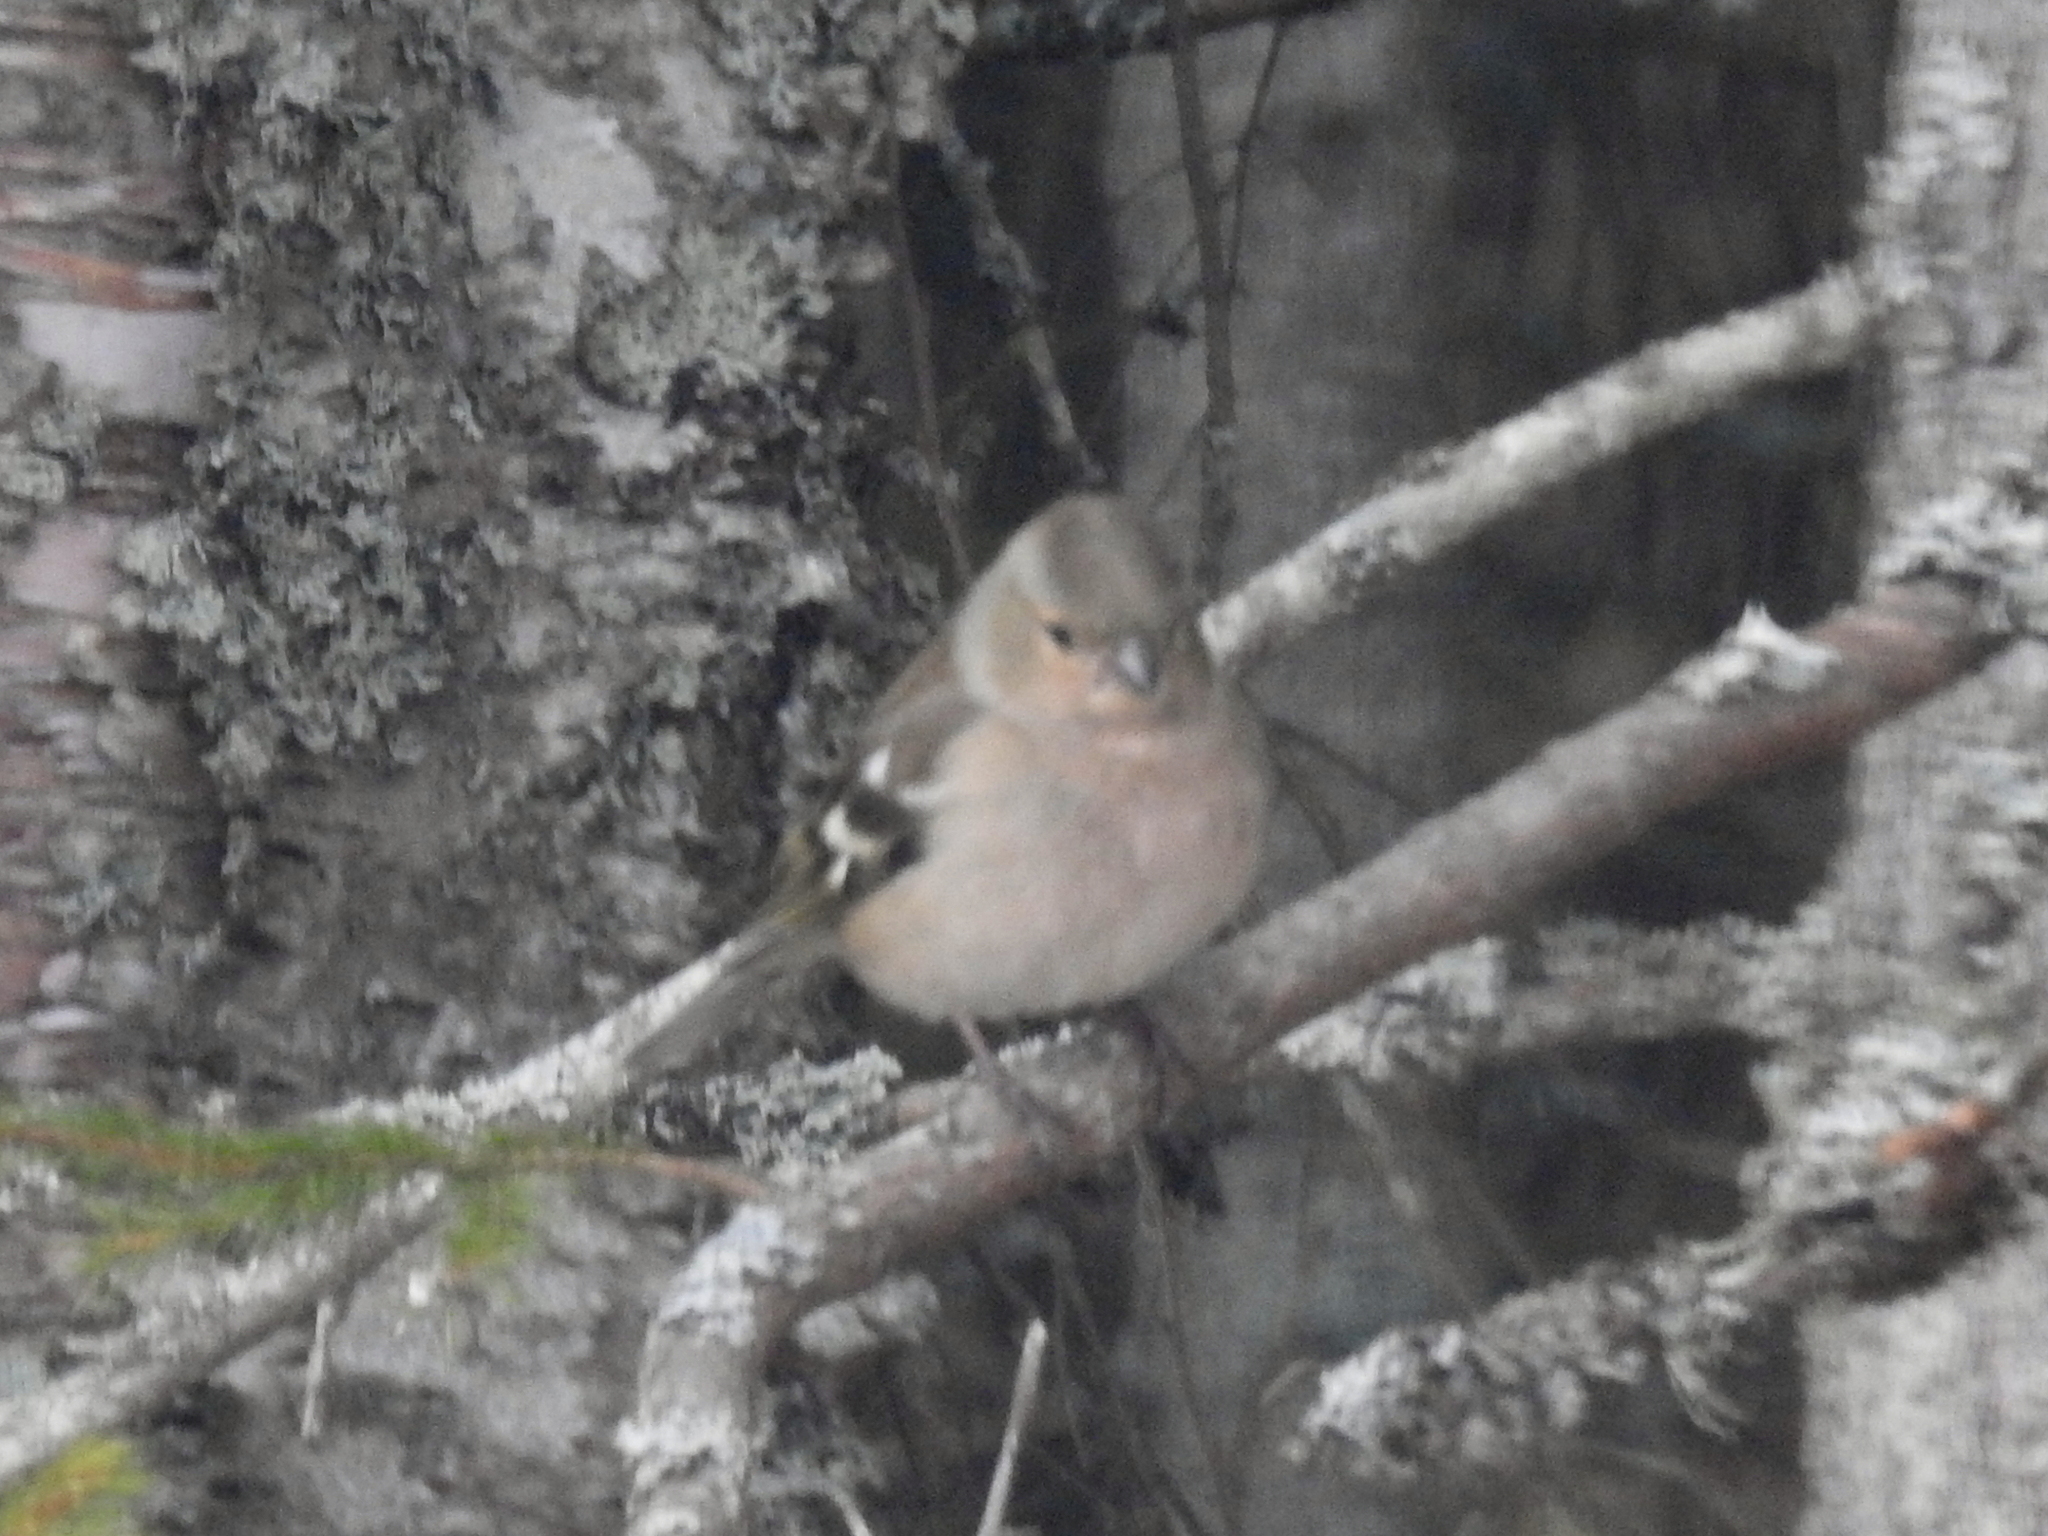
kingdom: Animalia
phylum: Chordata
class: Aves
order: Passeriformes
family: Fringillidae
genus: Fringilla
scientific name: Fringilla coelebs
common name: Common chaffinch
